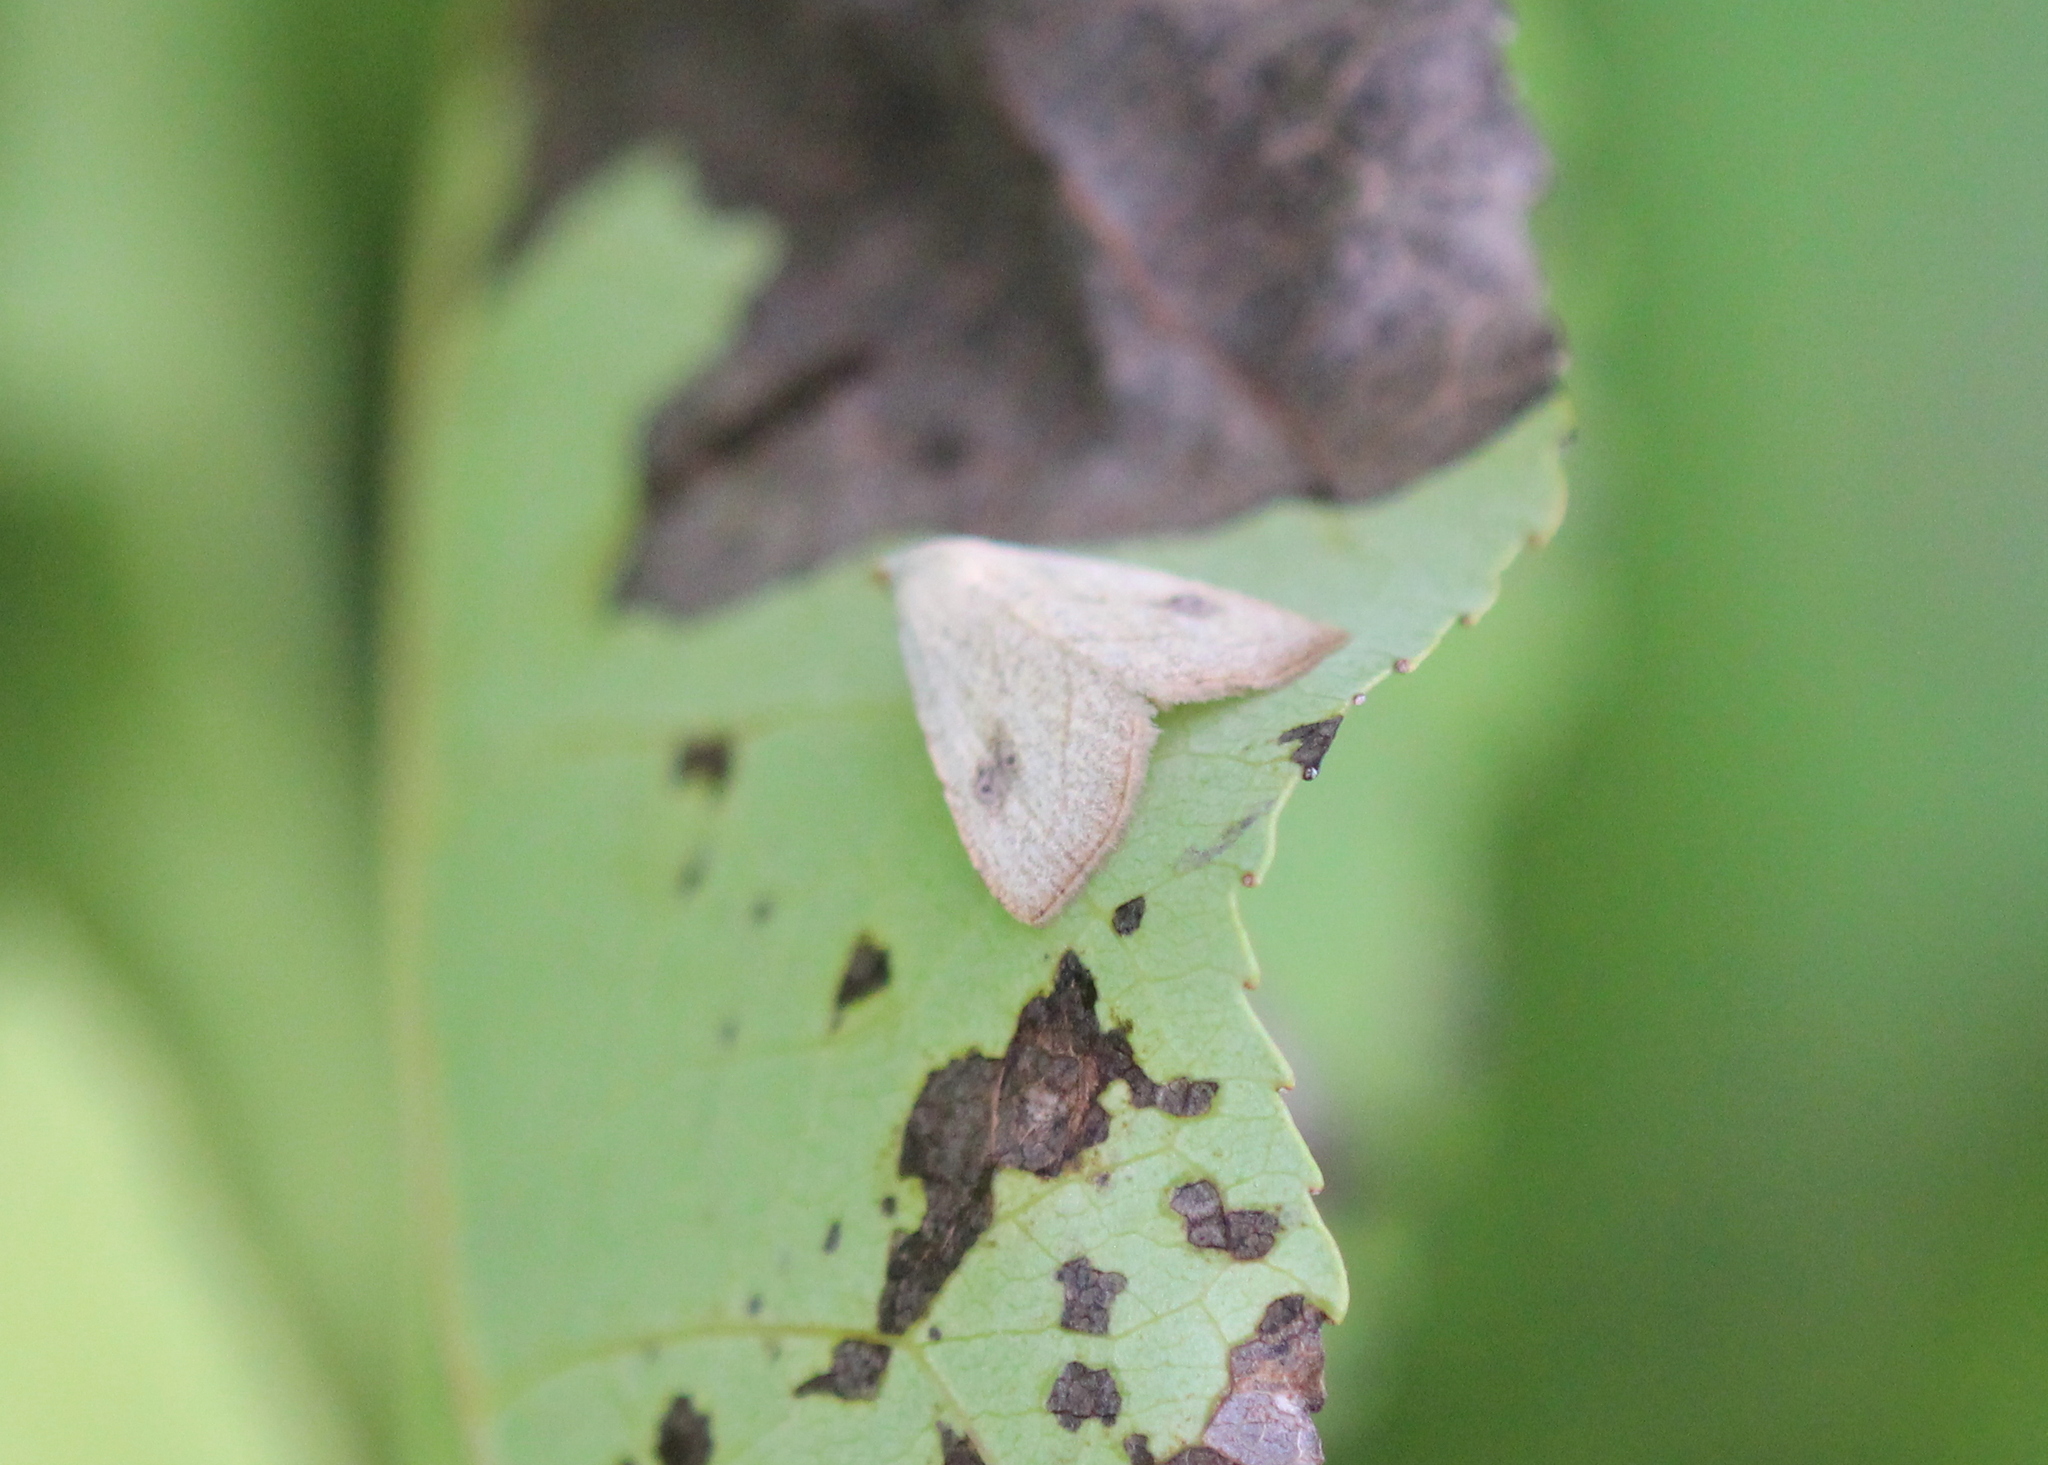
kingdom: Animalia
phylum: Arthropoda
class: Insecta
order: Lepidoptera
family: Erebidae
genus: Rivula
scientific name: Rivula propinqualis
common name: Spotted grass moth
